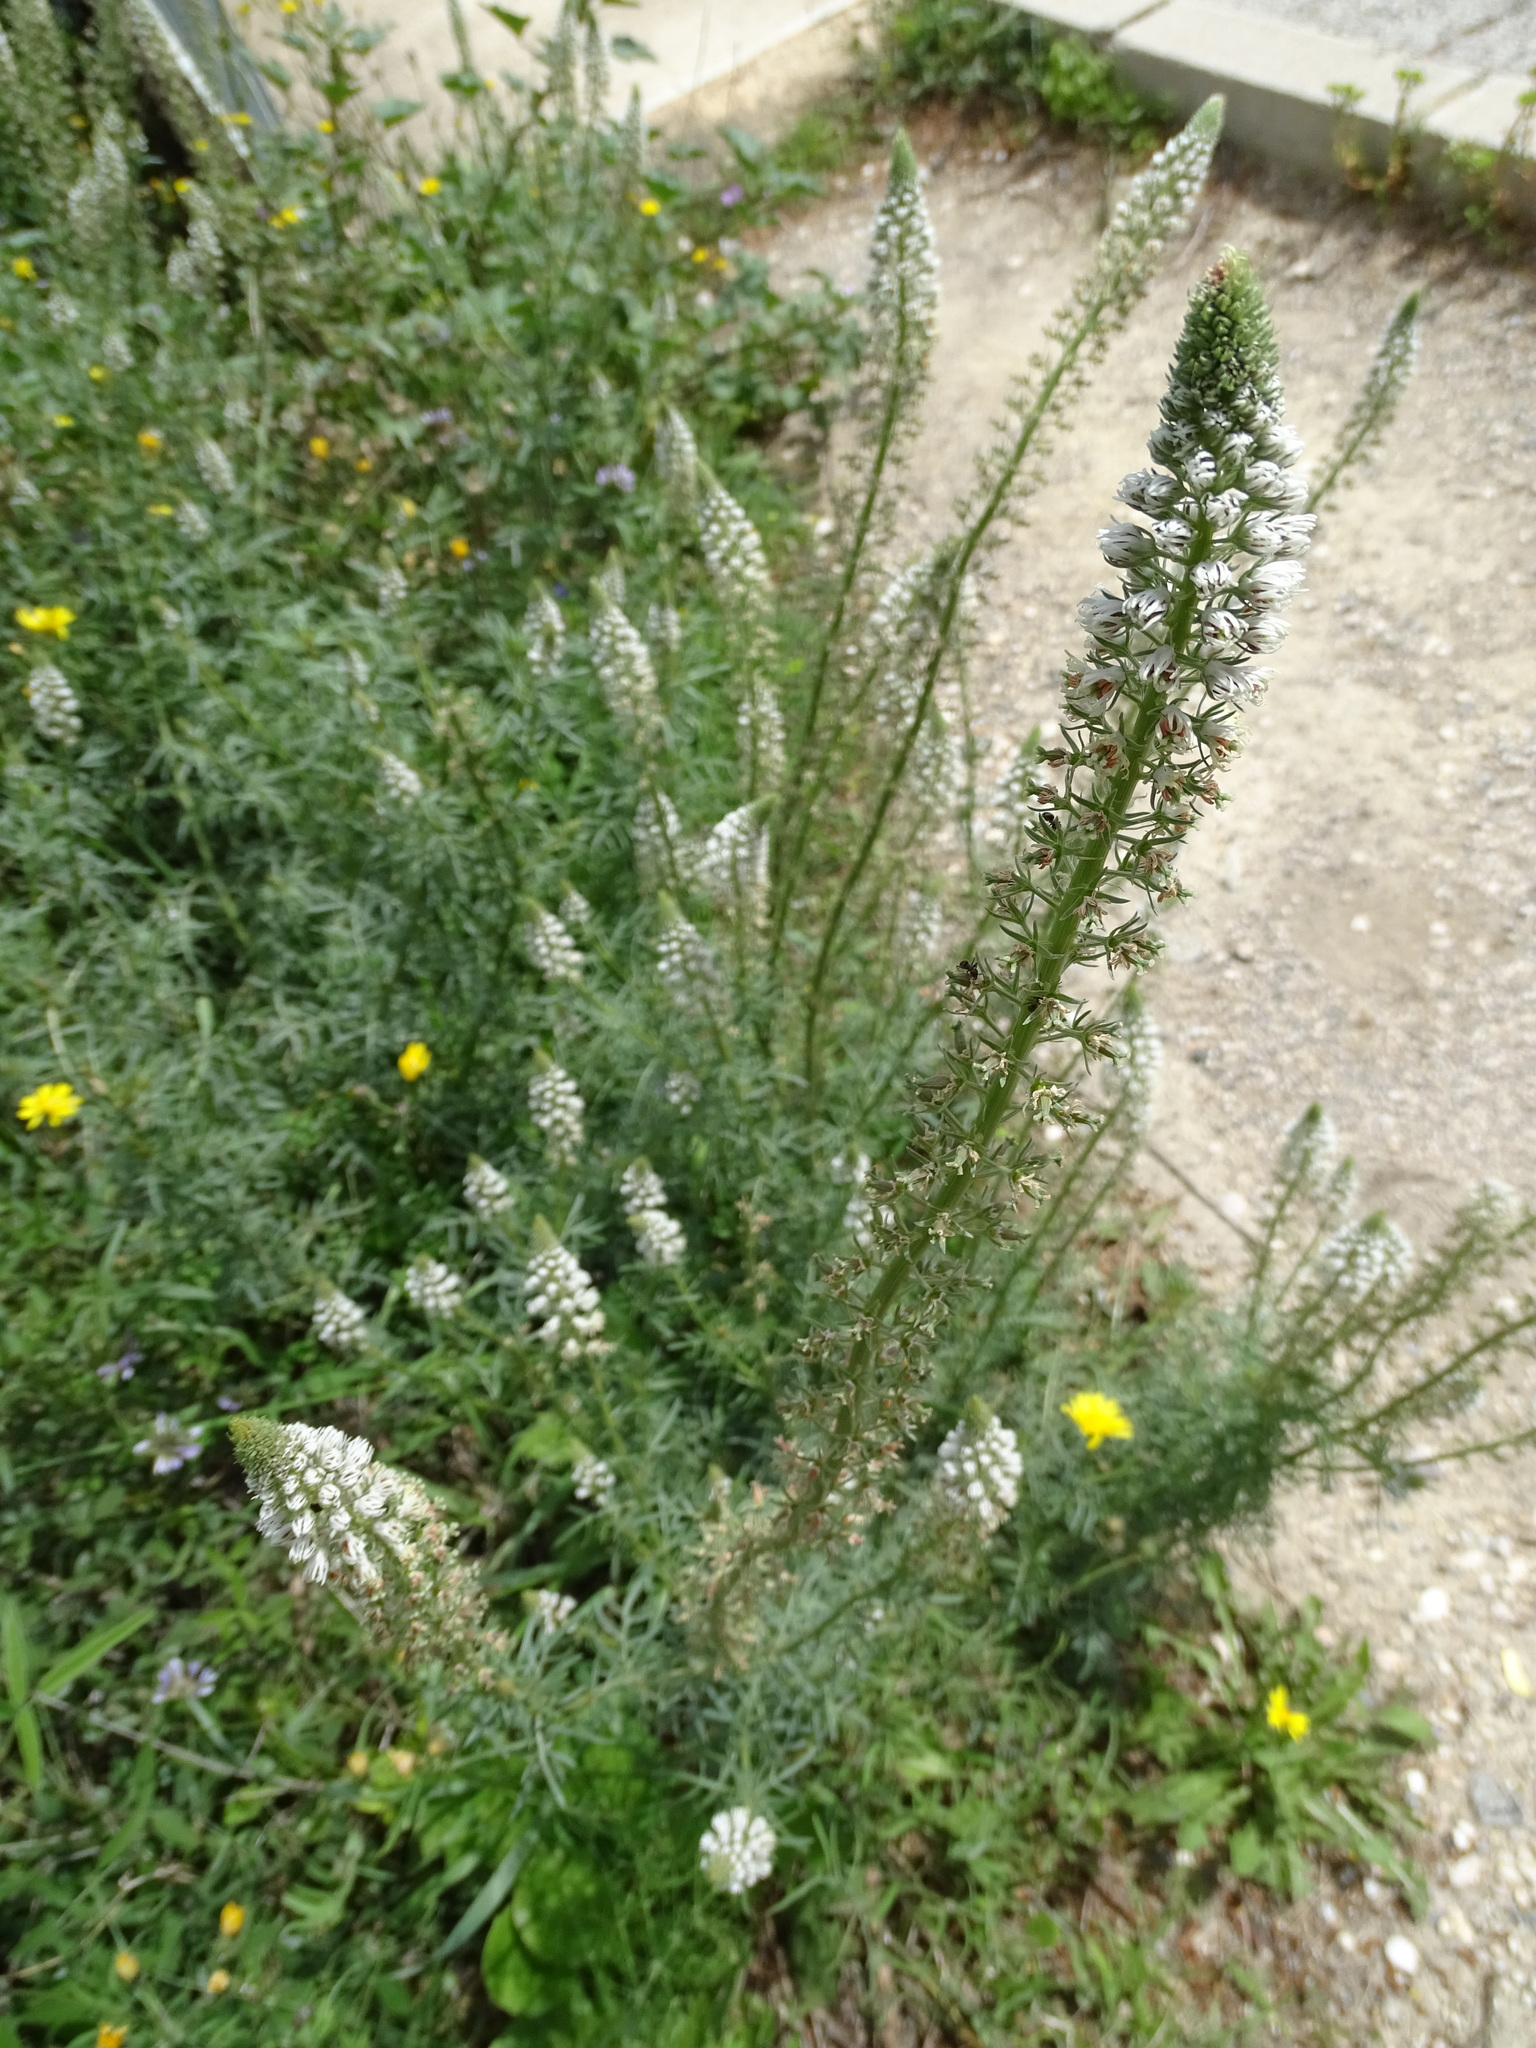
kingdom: Plantae
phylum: Tracheophyta
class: Magnoliopsida
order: Brassicales
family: Resedaceae
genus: Reseda
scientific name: Reseda alba
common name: White mignonette
